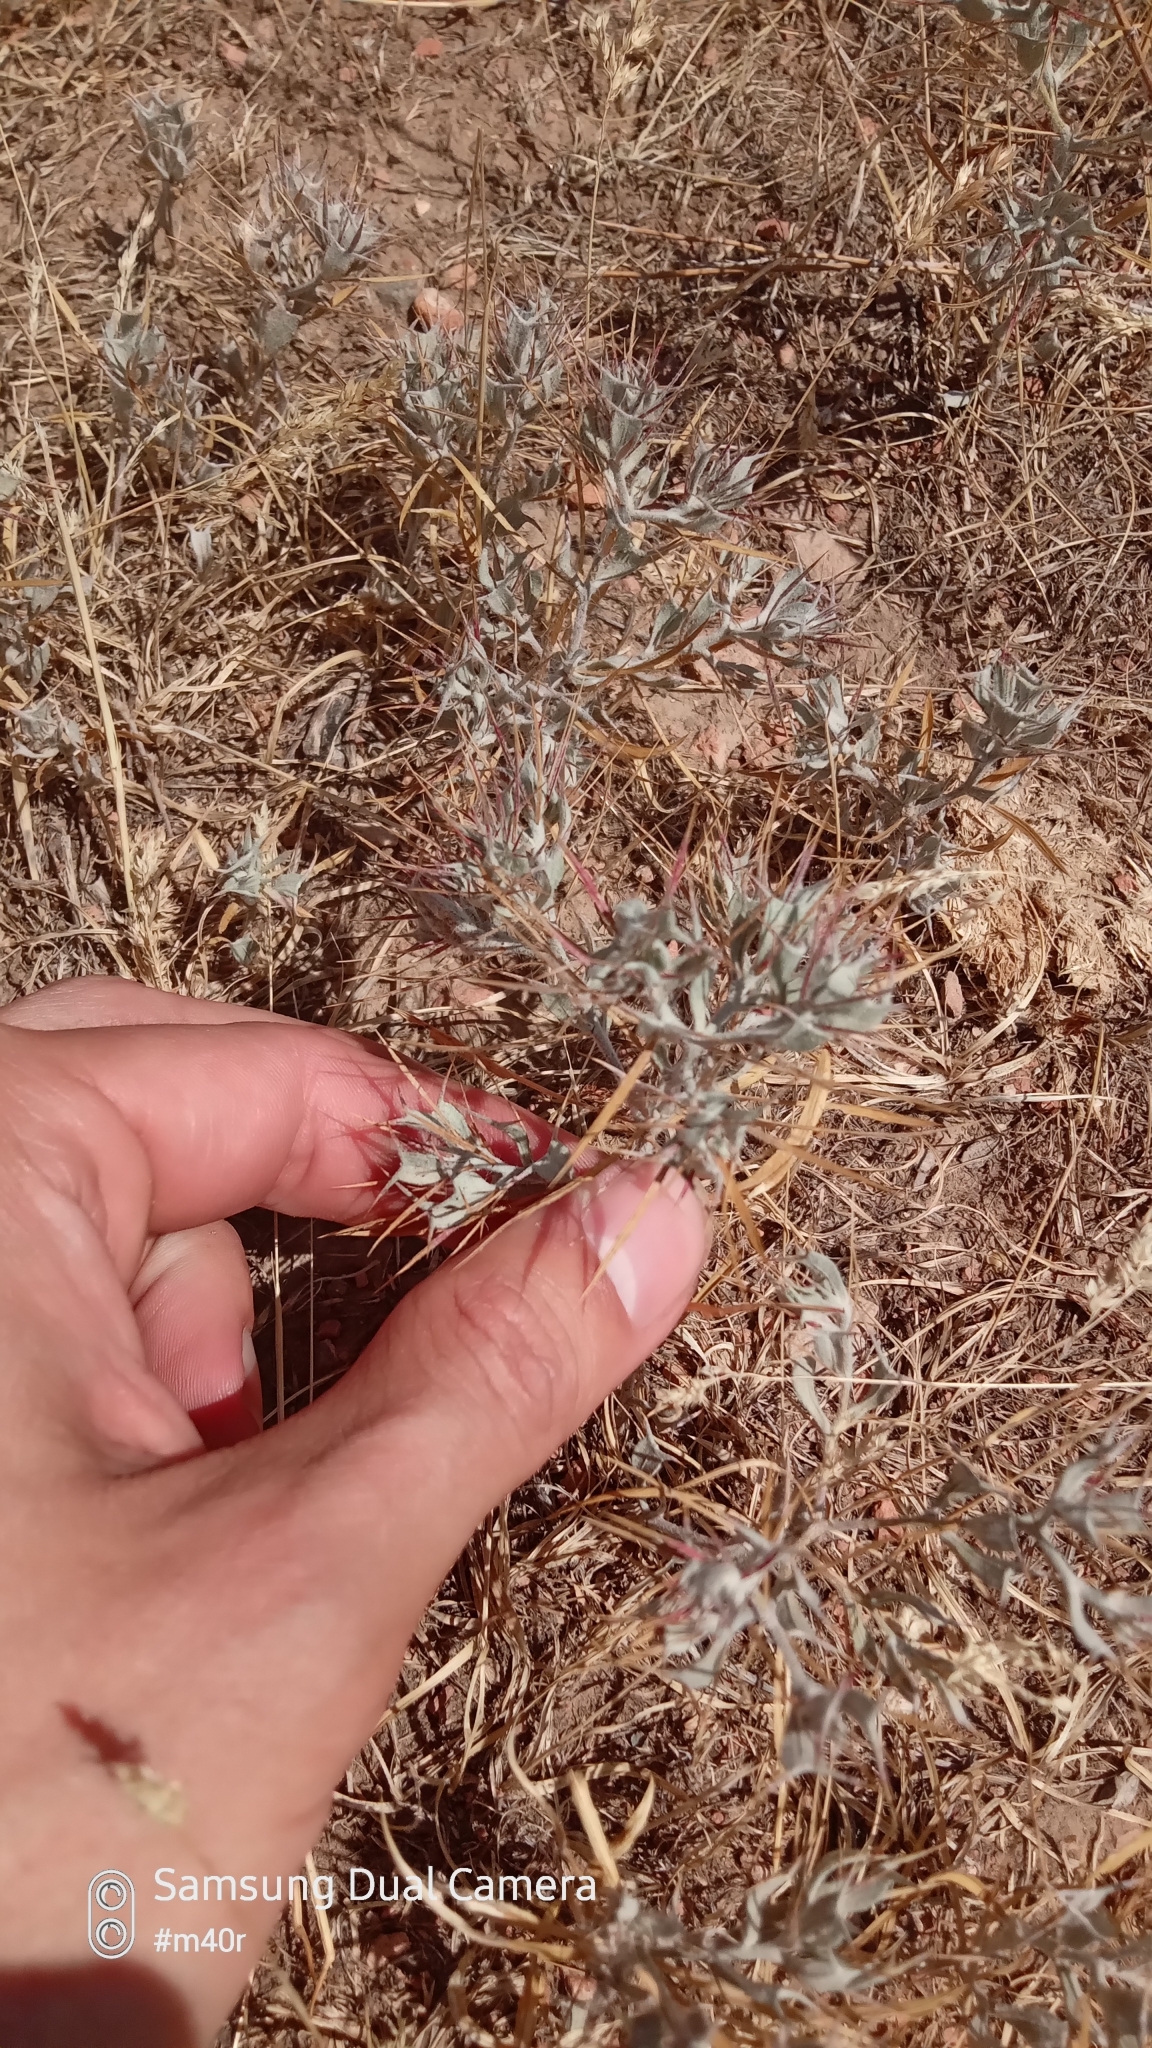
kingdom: Plantae
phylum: Tracheophyta
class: Magnoliopsida
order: Caryophyllales
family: Amaranthaceae
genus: Ceratocarpus
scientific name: Ceratocarpus arenarius
